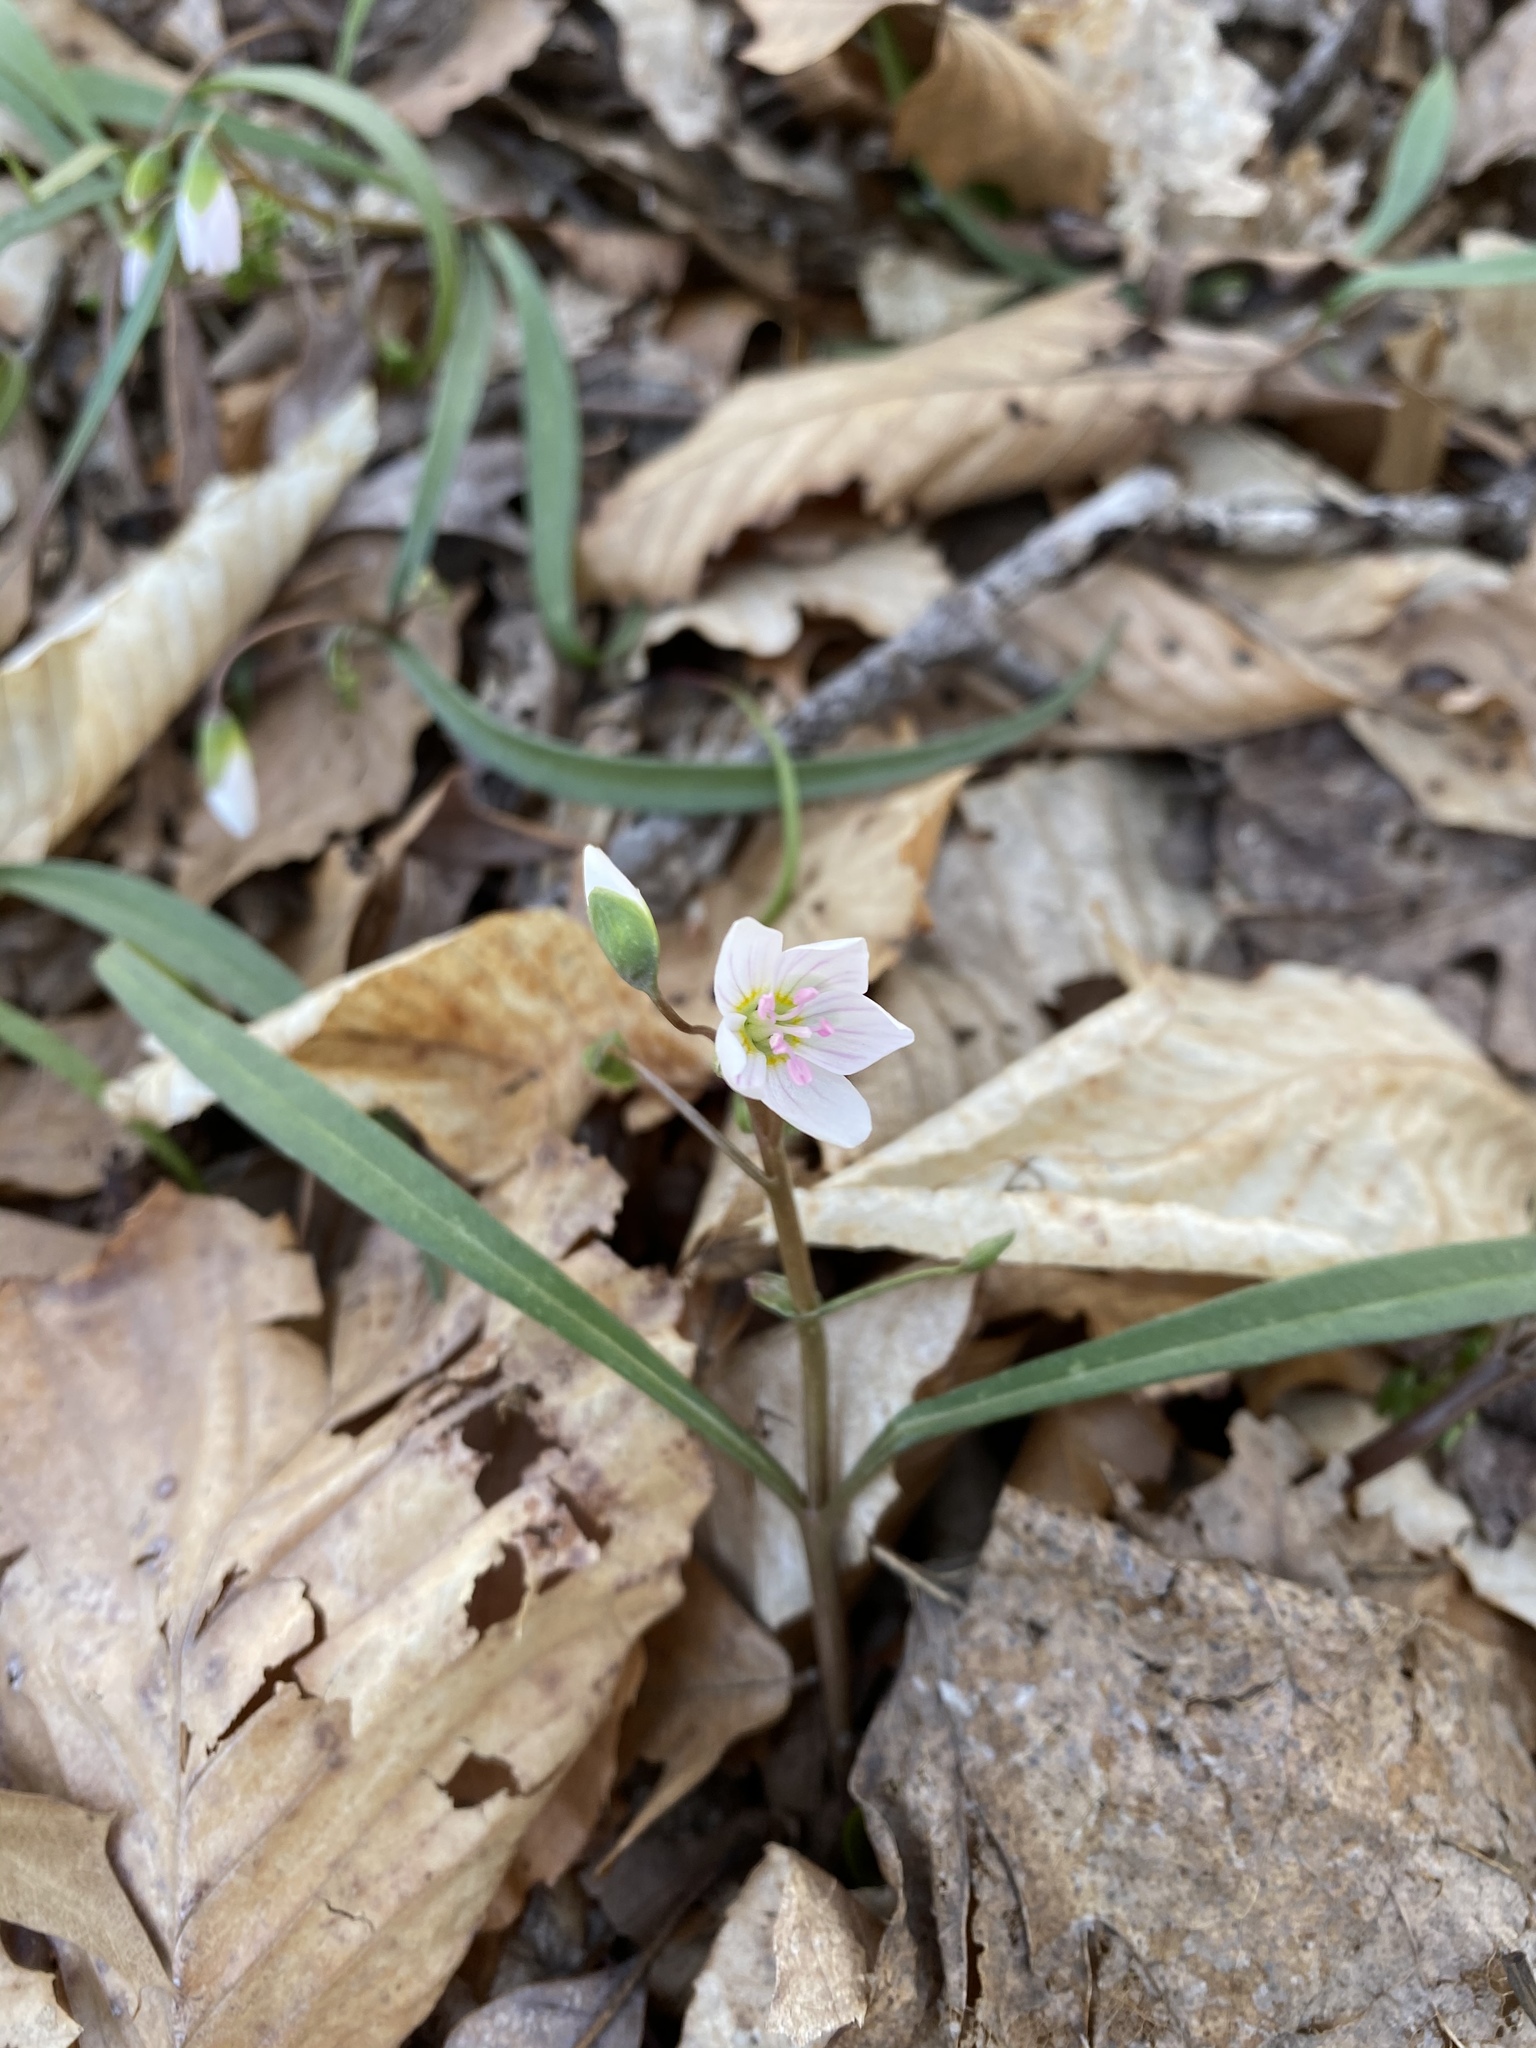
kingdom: Plantae
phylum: Tracheophyta
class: Magnoliopsida
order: Caryophyllales
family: Montiaceae
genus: Claytonia
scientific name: Claytonia virginica
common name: Virginia springbeauty
